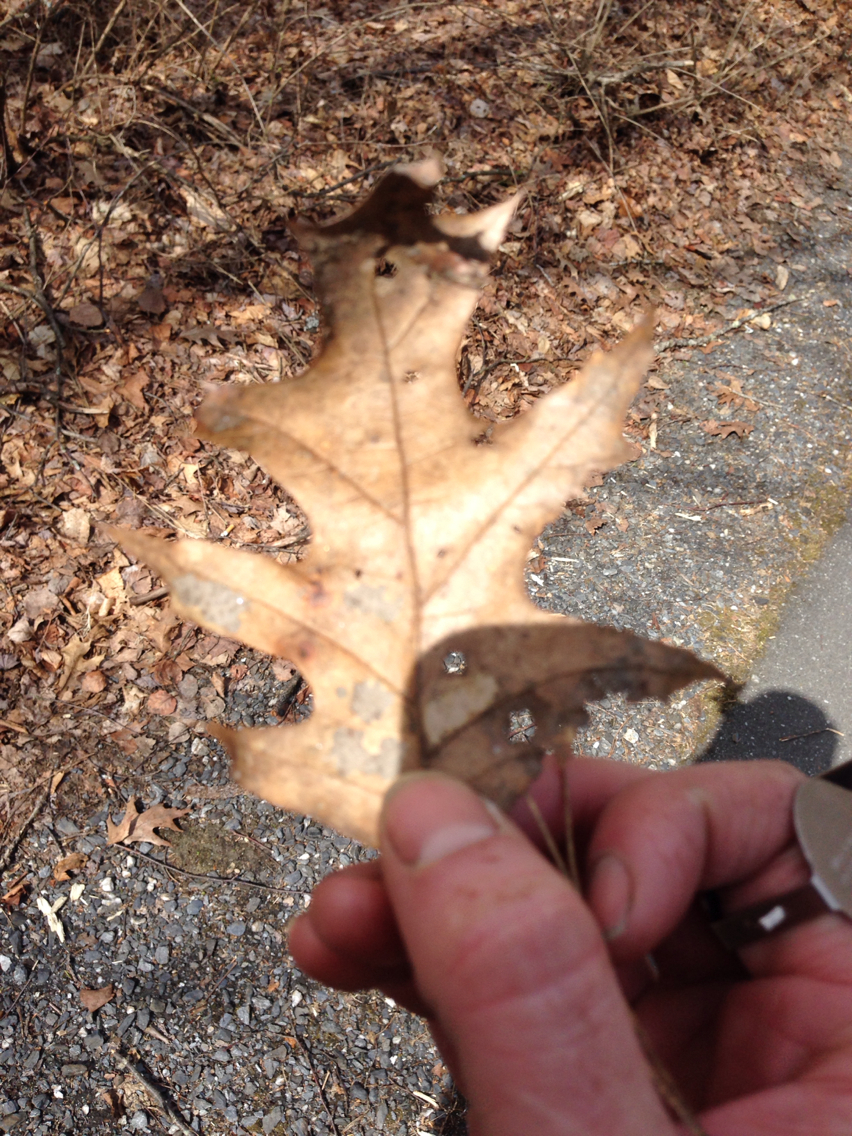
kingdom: Plantae
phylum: Tracheophyta
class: Magnoliopsida
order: Fagales
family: Fagaceae
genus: Quercus
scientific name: Quercus rubra
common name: Red oak
